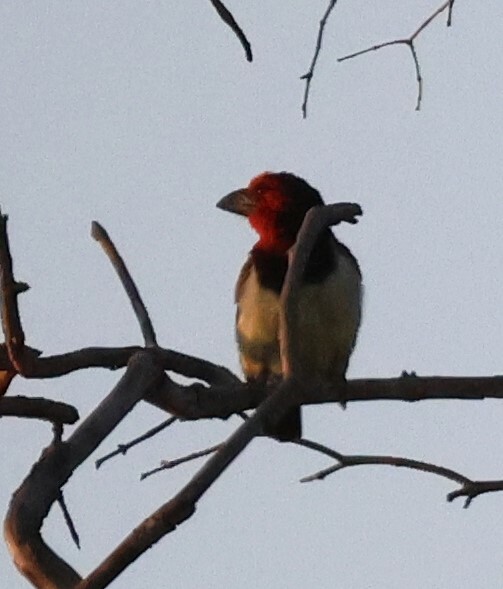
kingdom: Animalia
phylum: Chordata
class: Aves
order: Piciformes
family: Lybiidae
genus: Lybius
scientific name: Lybius torquatus
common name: Black-collared barbet
